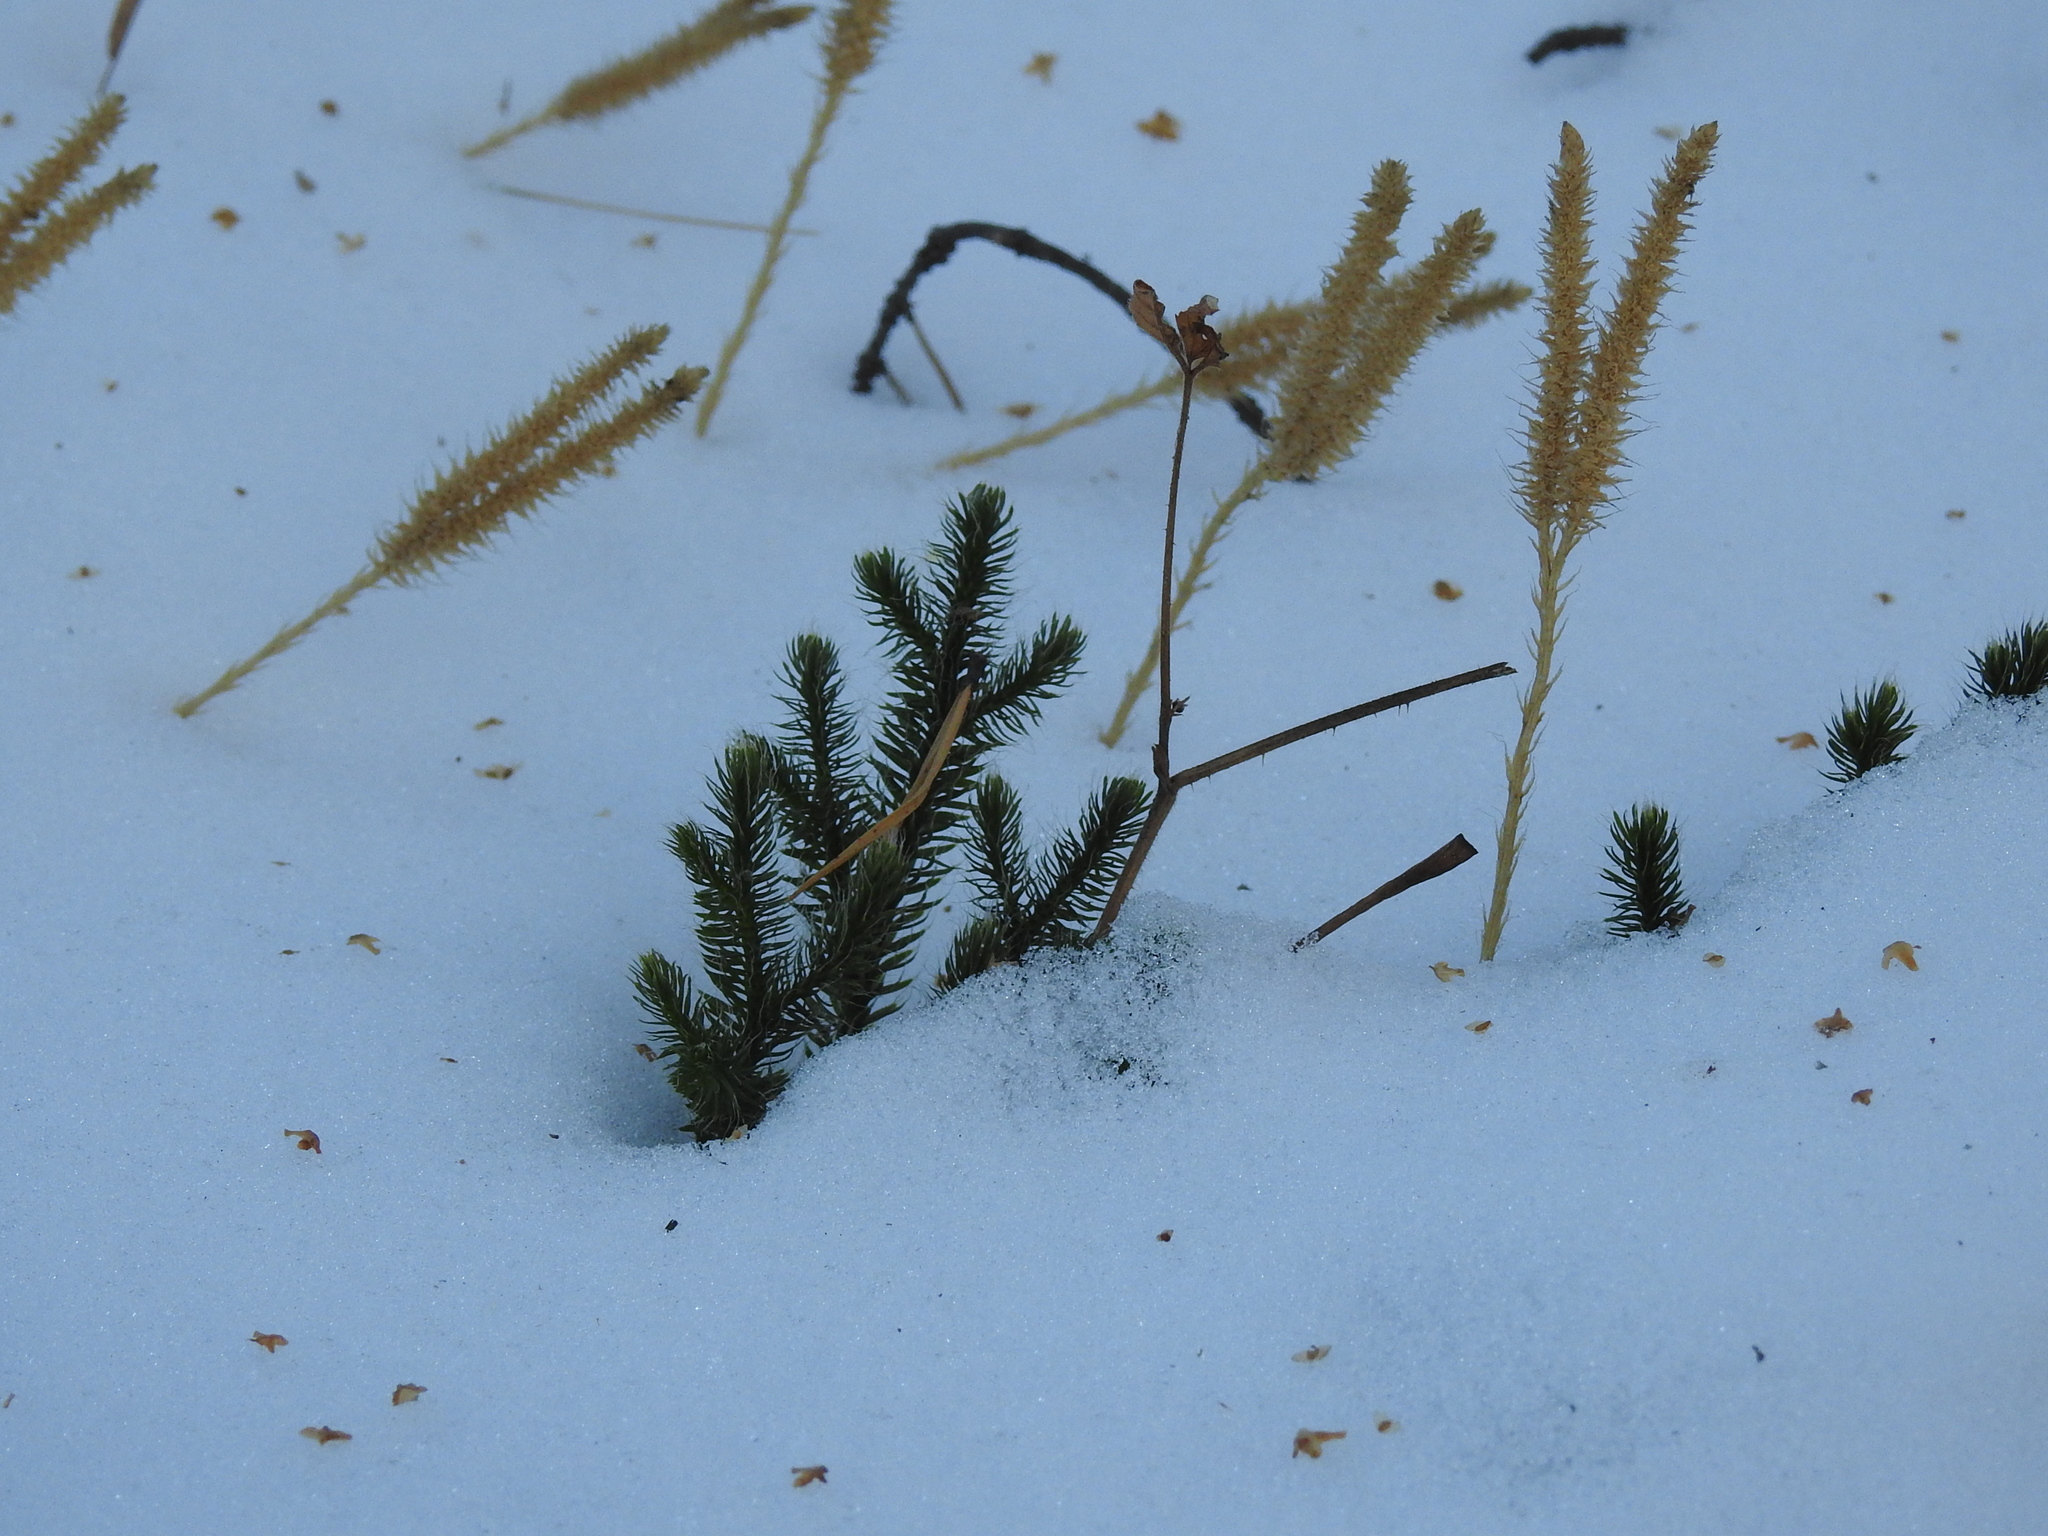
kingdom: Plantae
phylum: Tracheophyta
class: Lycopodiopsida
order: Lycopodiales
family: Lycopodiaceae
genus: Lycopodium
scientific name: Lycopodium clavatum
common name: Stag's-horn clubmoss
